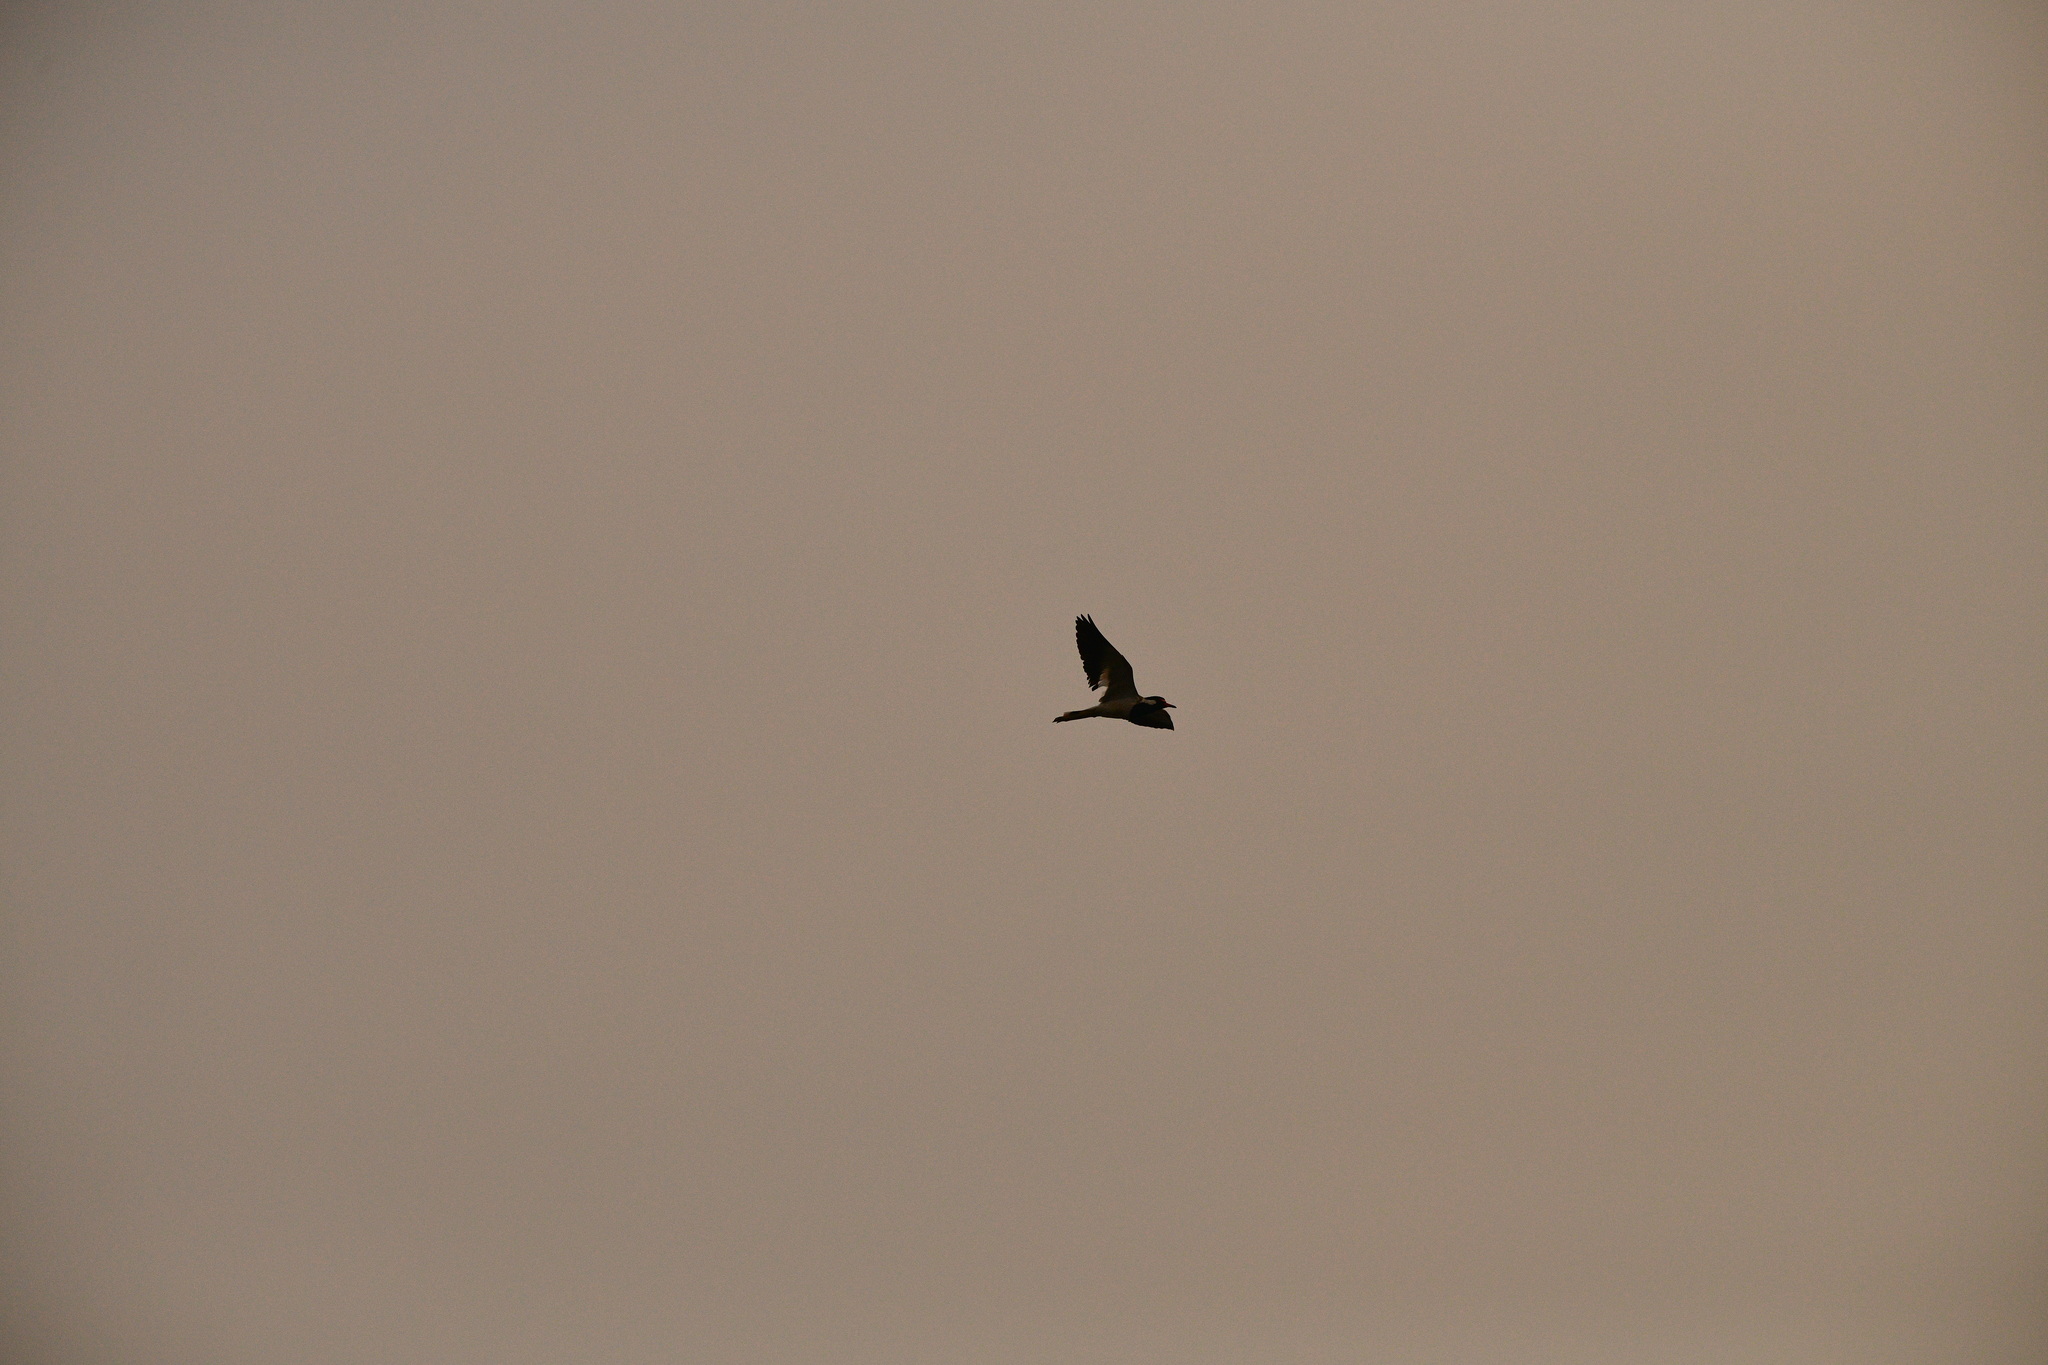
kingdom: Animalia
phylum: Chordata
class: Aves
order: Charadriiformes
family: Charadriidae
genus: Vanellus
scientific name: Vanellus indicus
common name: Red-wattled lapwing
